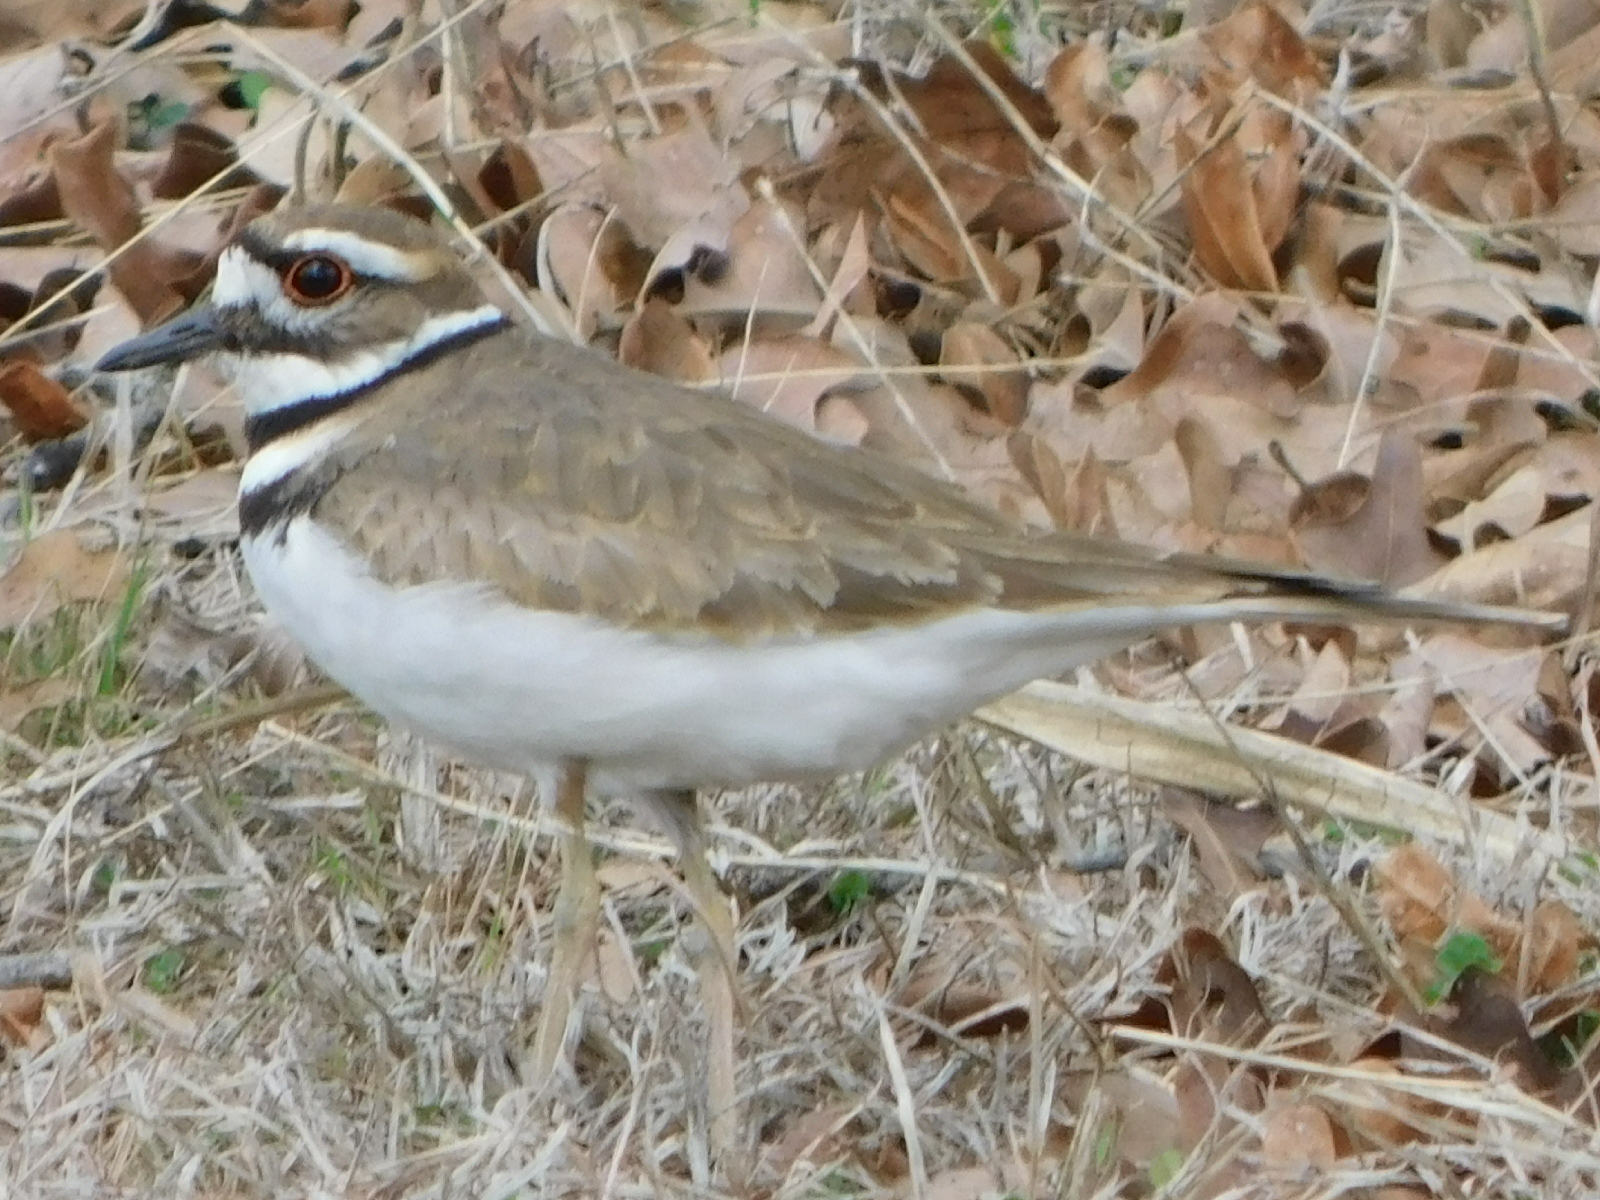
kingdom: Animalia
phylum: Chordata
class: Aves
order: Charadriiformes
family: Charadriidae
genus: Charadrius
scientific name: Charadrius vociferus
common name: Killdeer
